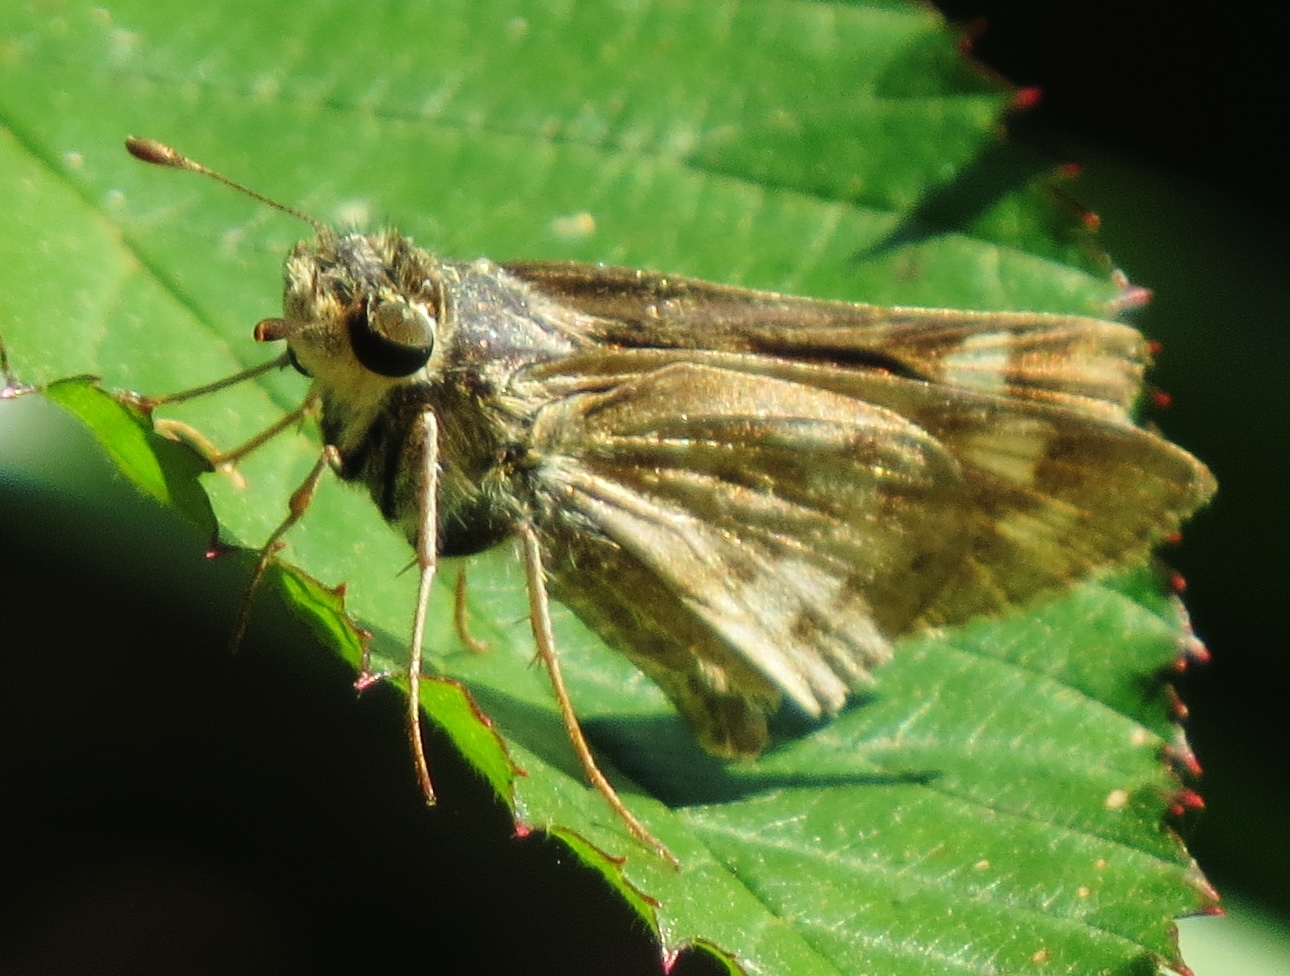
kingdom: Animalia
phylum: Arthropoda
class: Insecta
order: Lepidoptera
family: Hesperiidae
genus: Atalopedes
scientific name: Atalopedes
